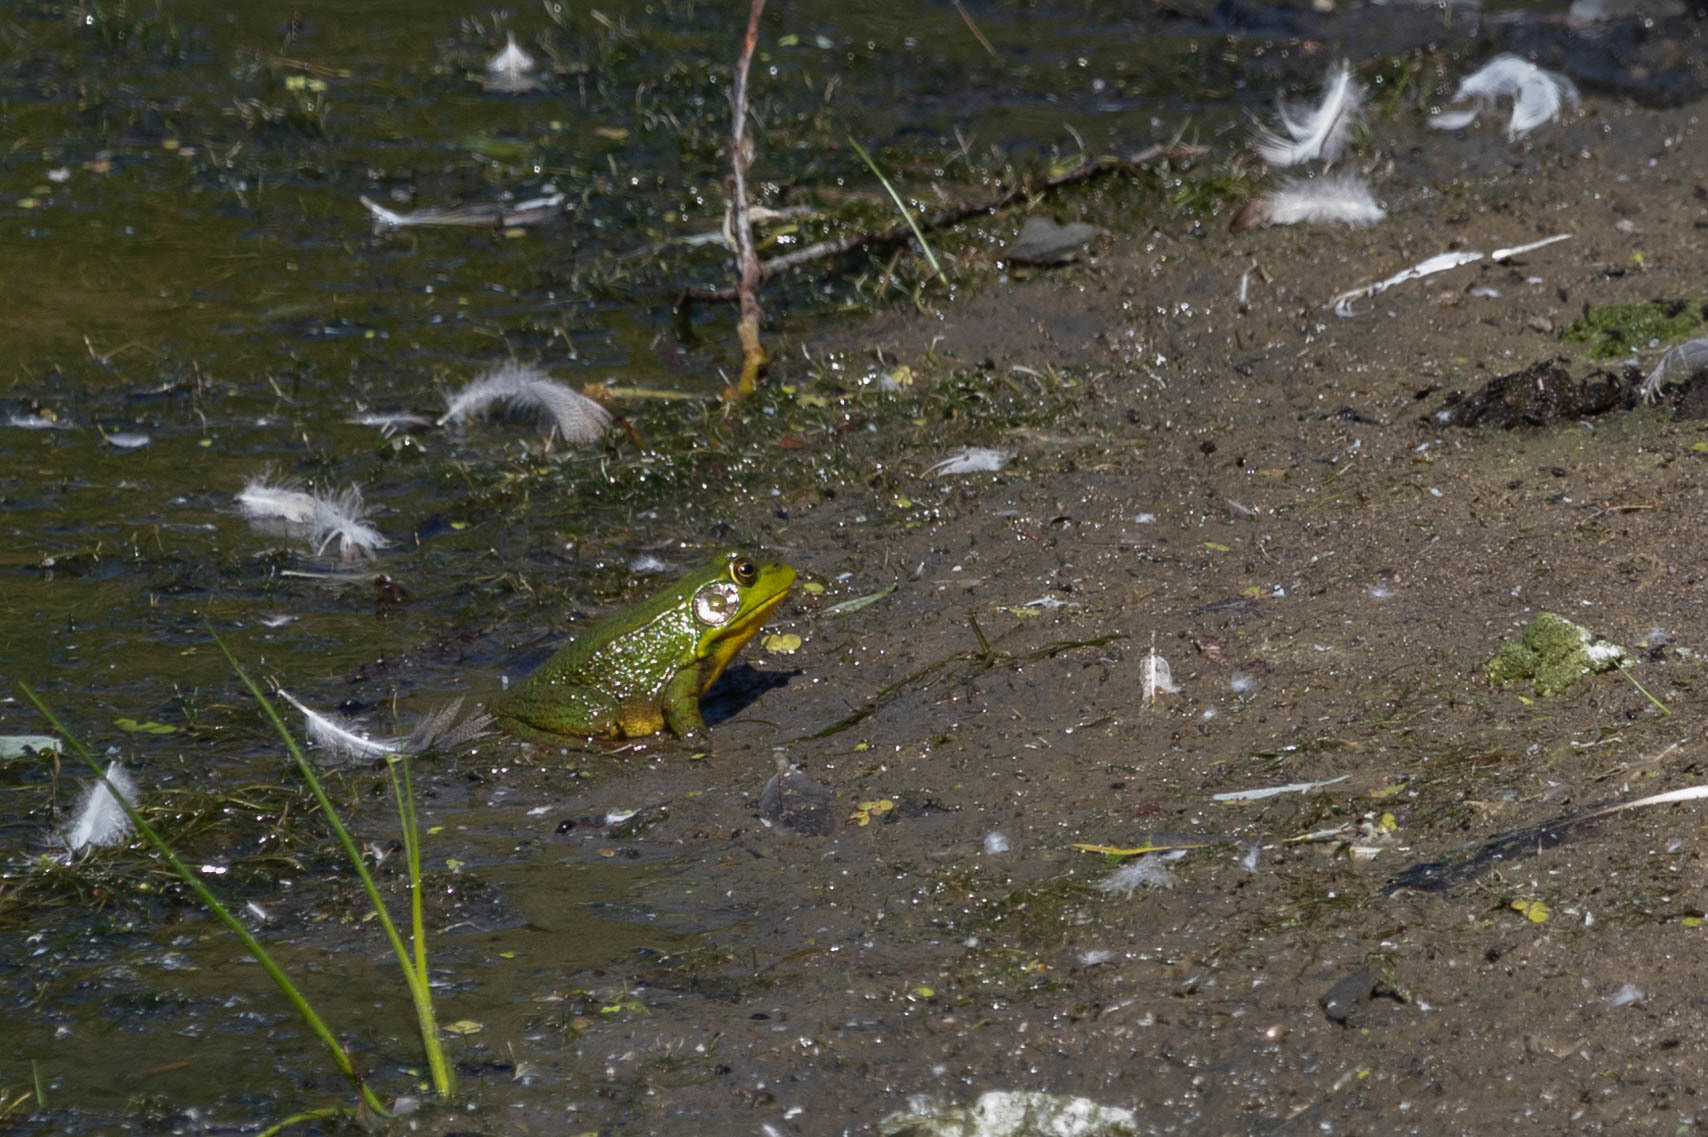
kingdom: Animalia
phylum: Chordata
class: Amphibia
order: Anura
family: Ranidae
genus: Lithobates
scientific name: Lithobates clamitans
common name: Green frog
